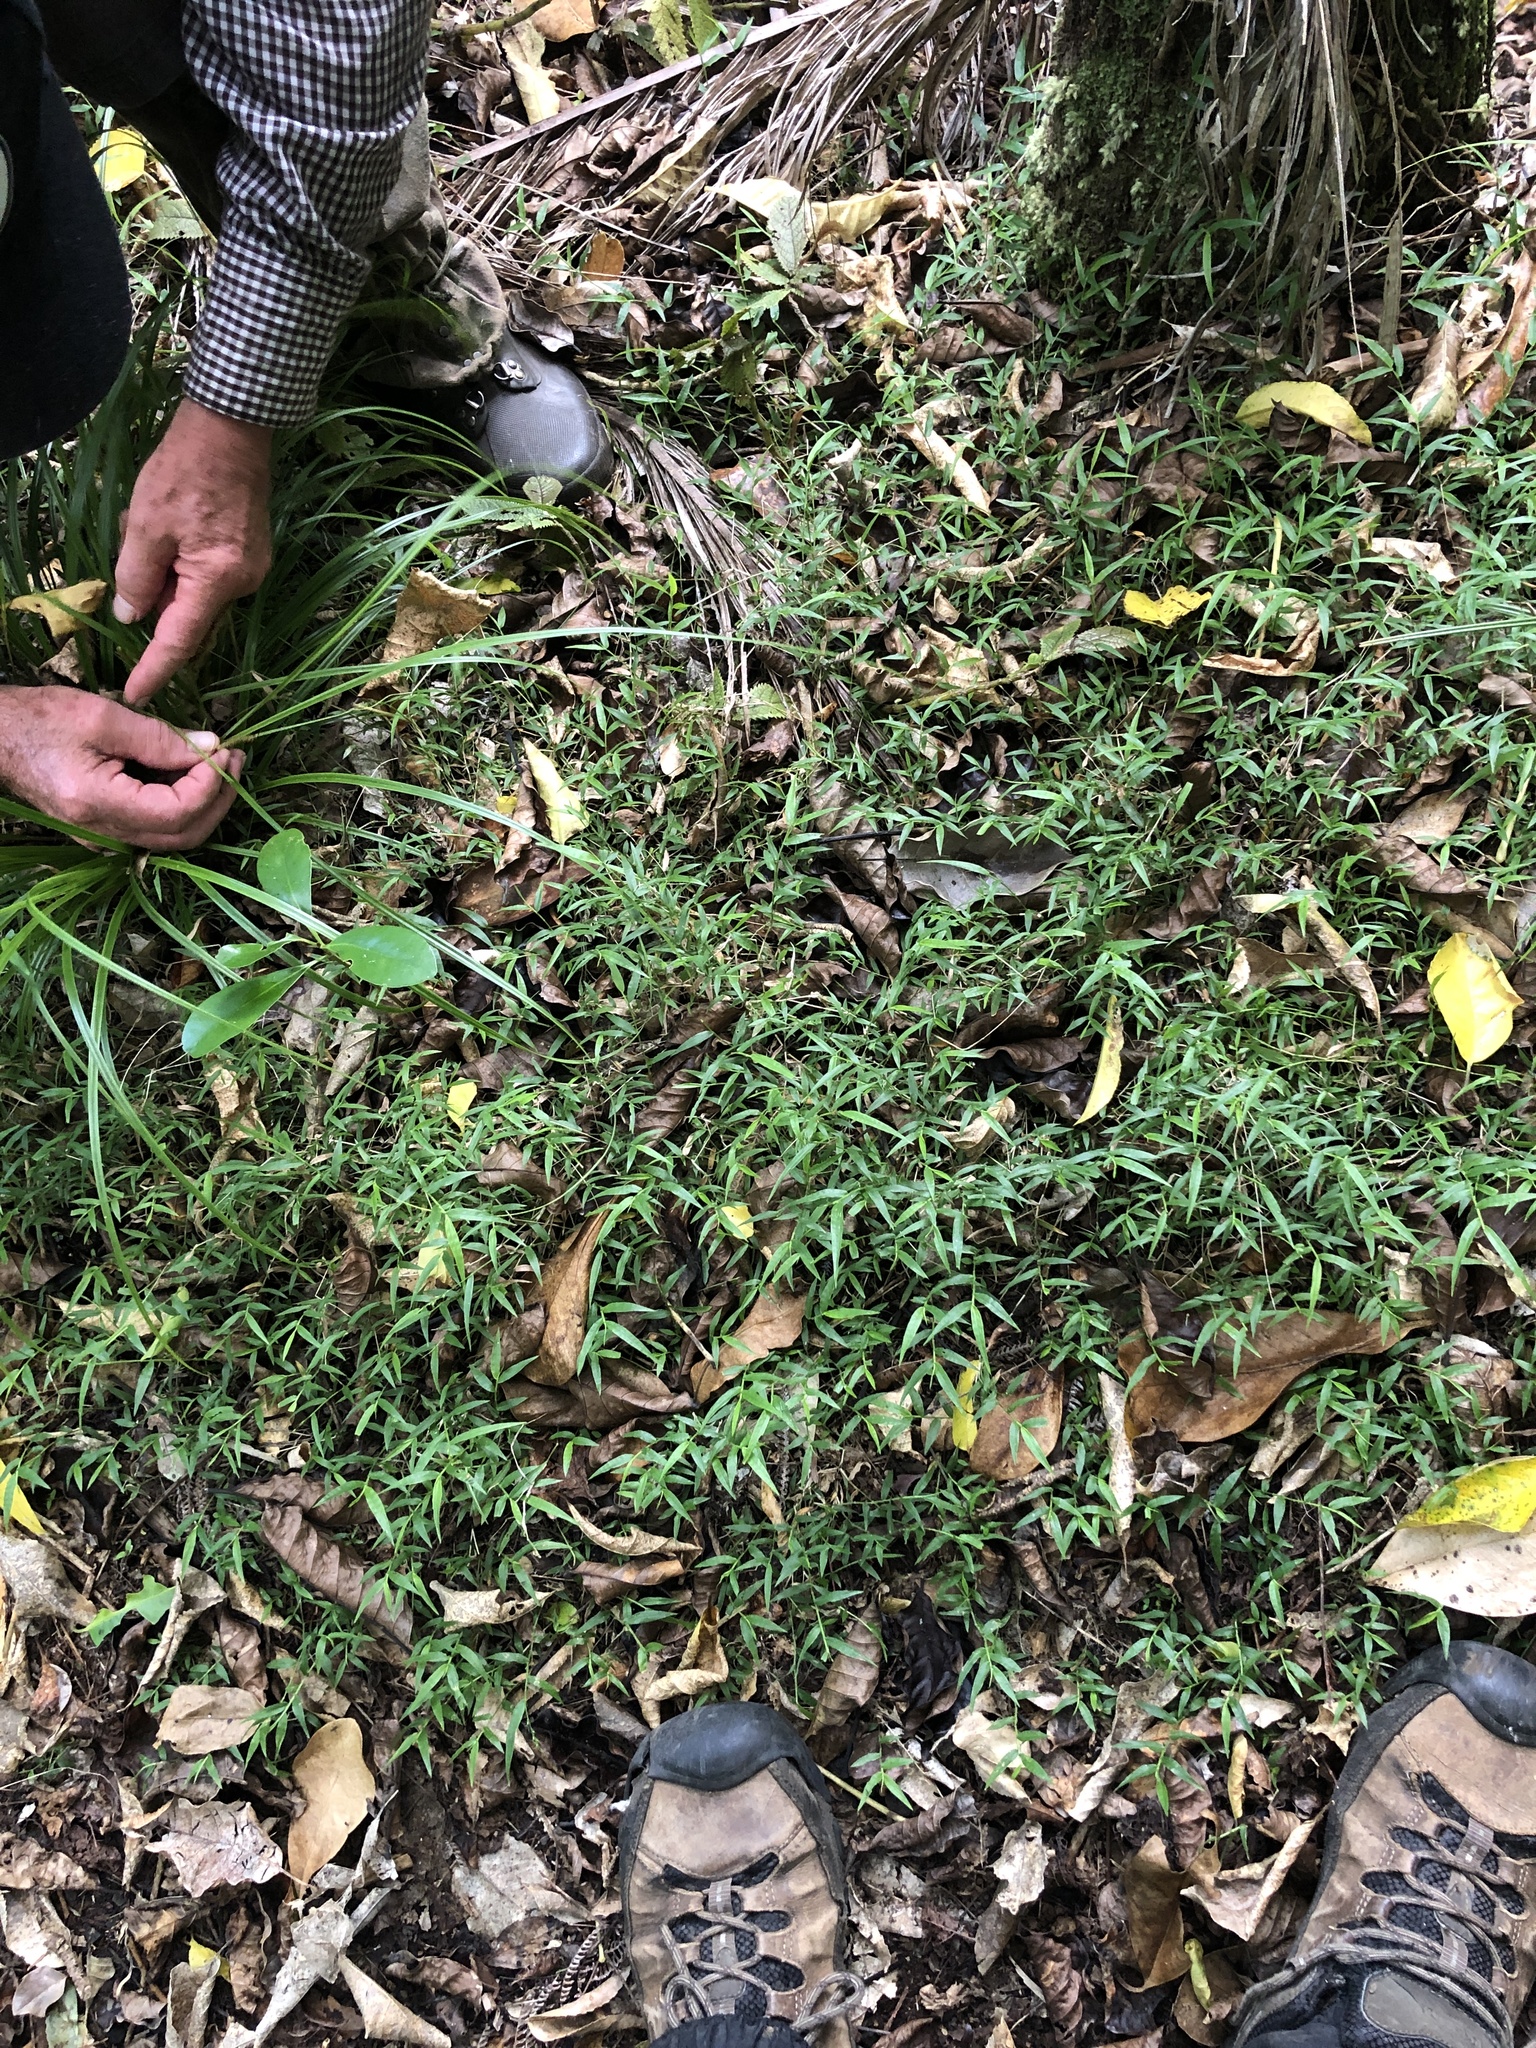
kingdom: Plantae
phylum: Tracheophyta
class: Liliopsida
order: Poales
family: Poaceae
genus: Oplismenus
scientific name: Oplismenus hirtellus
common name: Basketgrass
